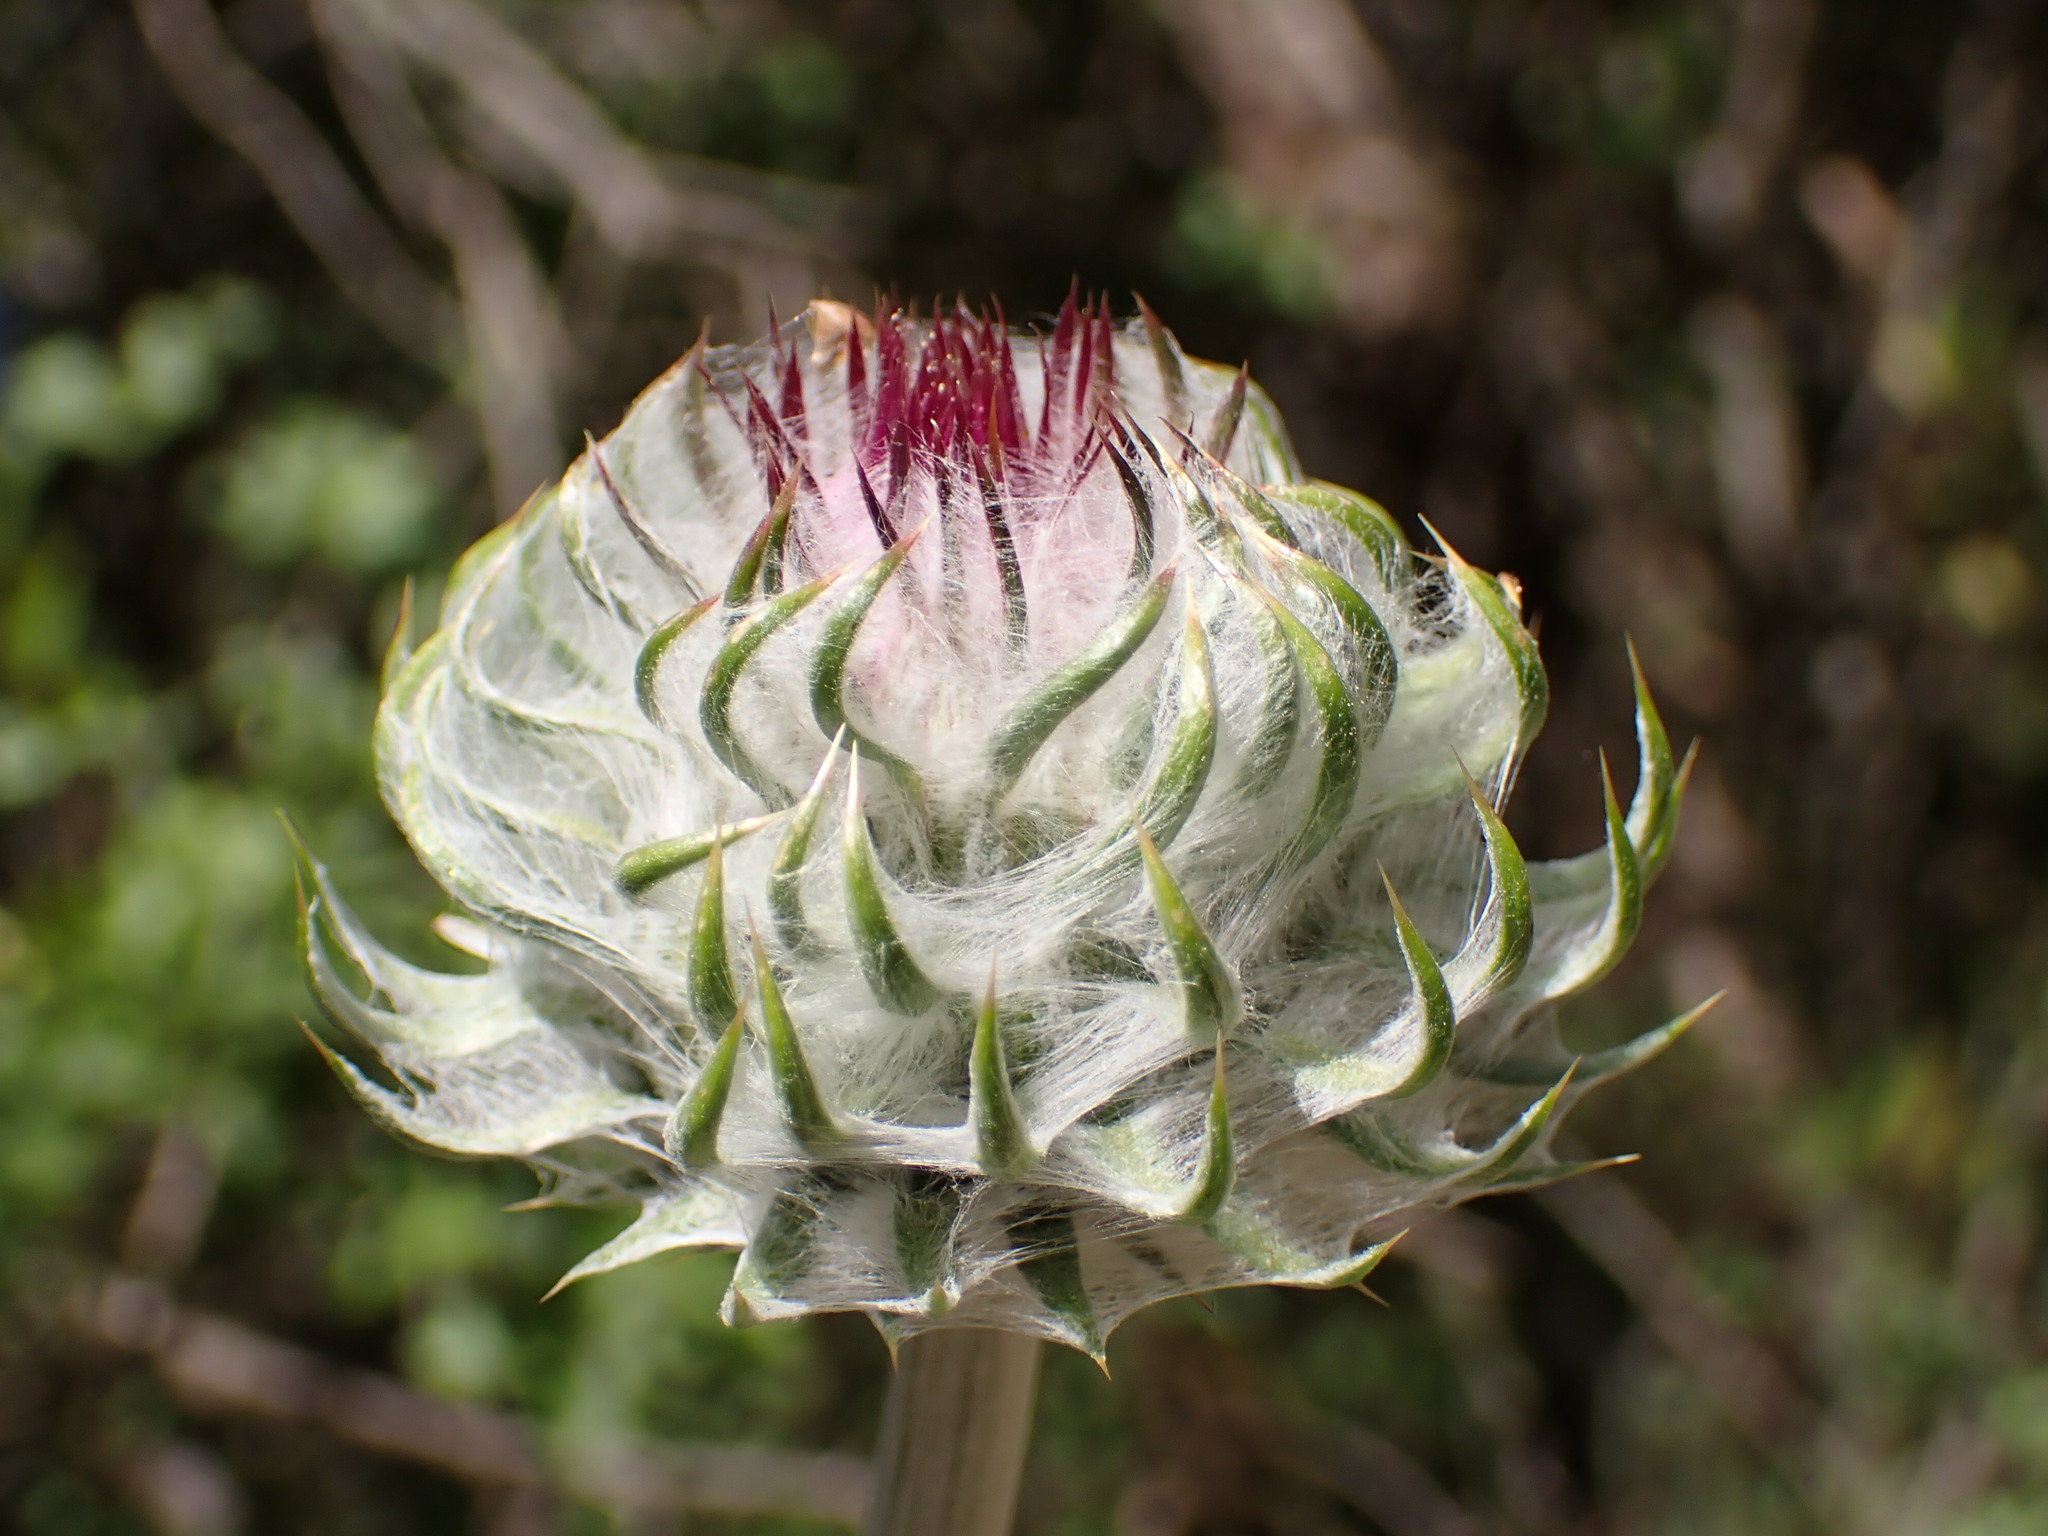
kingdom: Plantae
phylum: Tracheophyta
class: Magnoliopsida
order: Asterales
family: Asteraceae
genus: Cirsium
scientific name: Cirsium occidentale
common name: Western thistle
